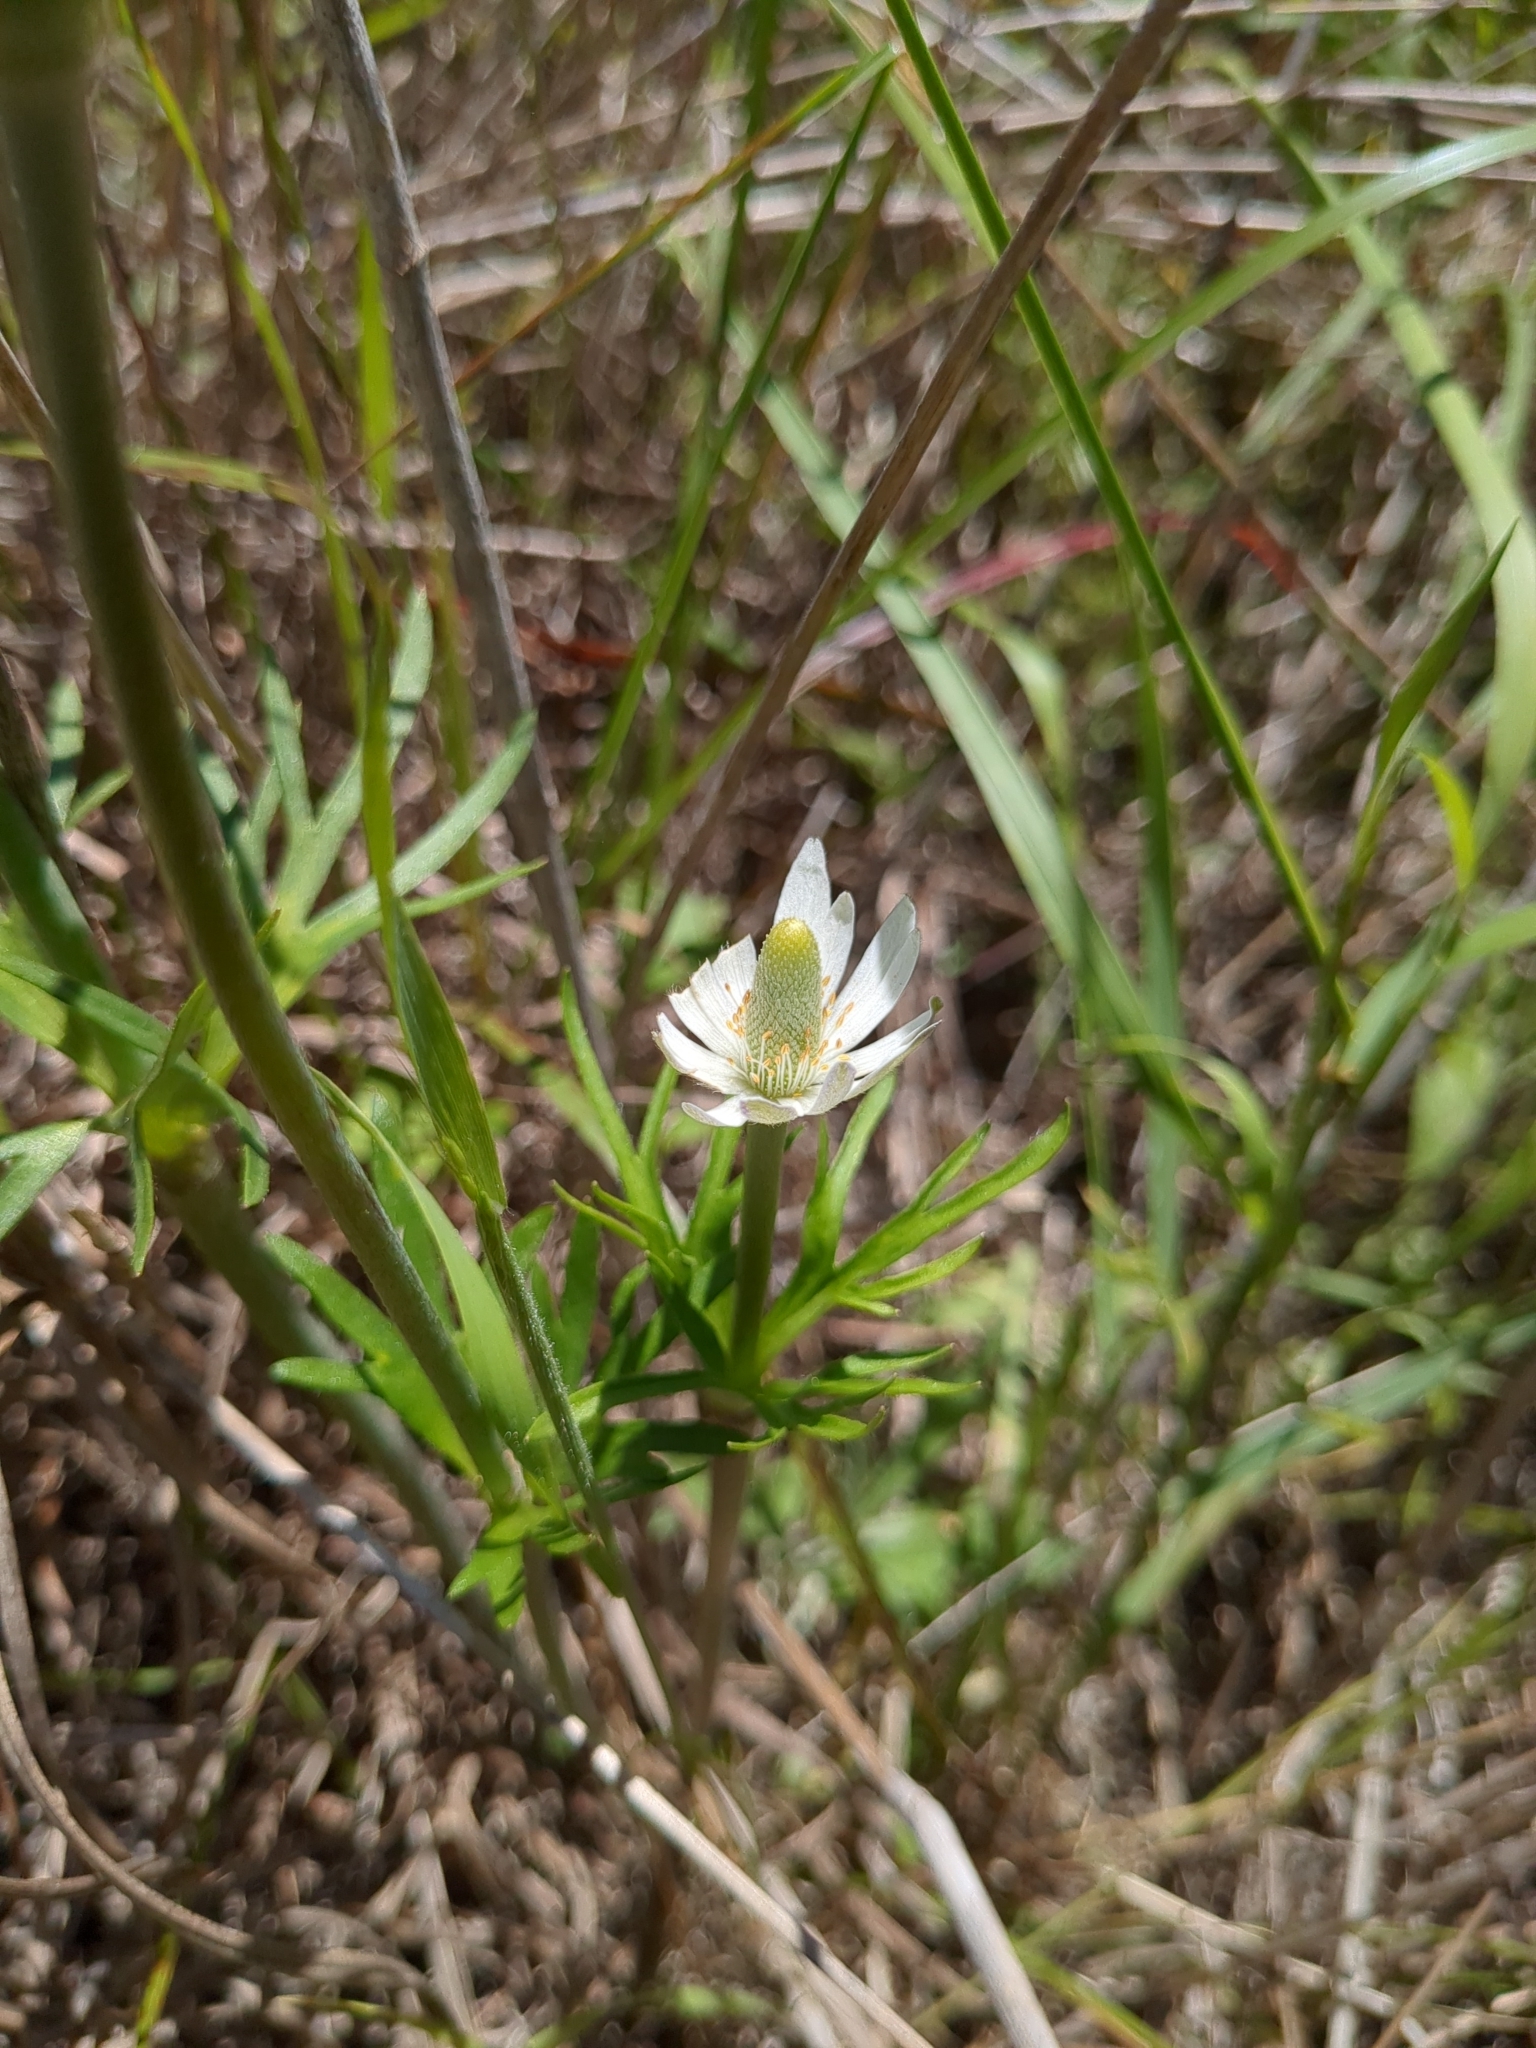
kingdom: Plantae
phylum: Tracheophyta
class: Magnoliopsida
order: Ranunculales
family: Ranunculaceae
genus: Anemone
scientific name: Anemone berlandieri
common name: Ten-petal anemone
